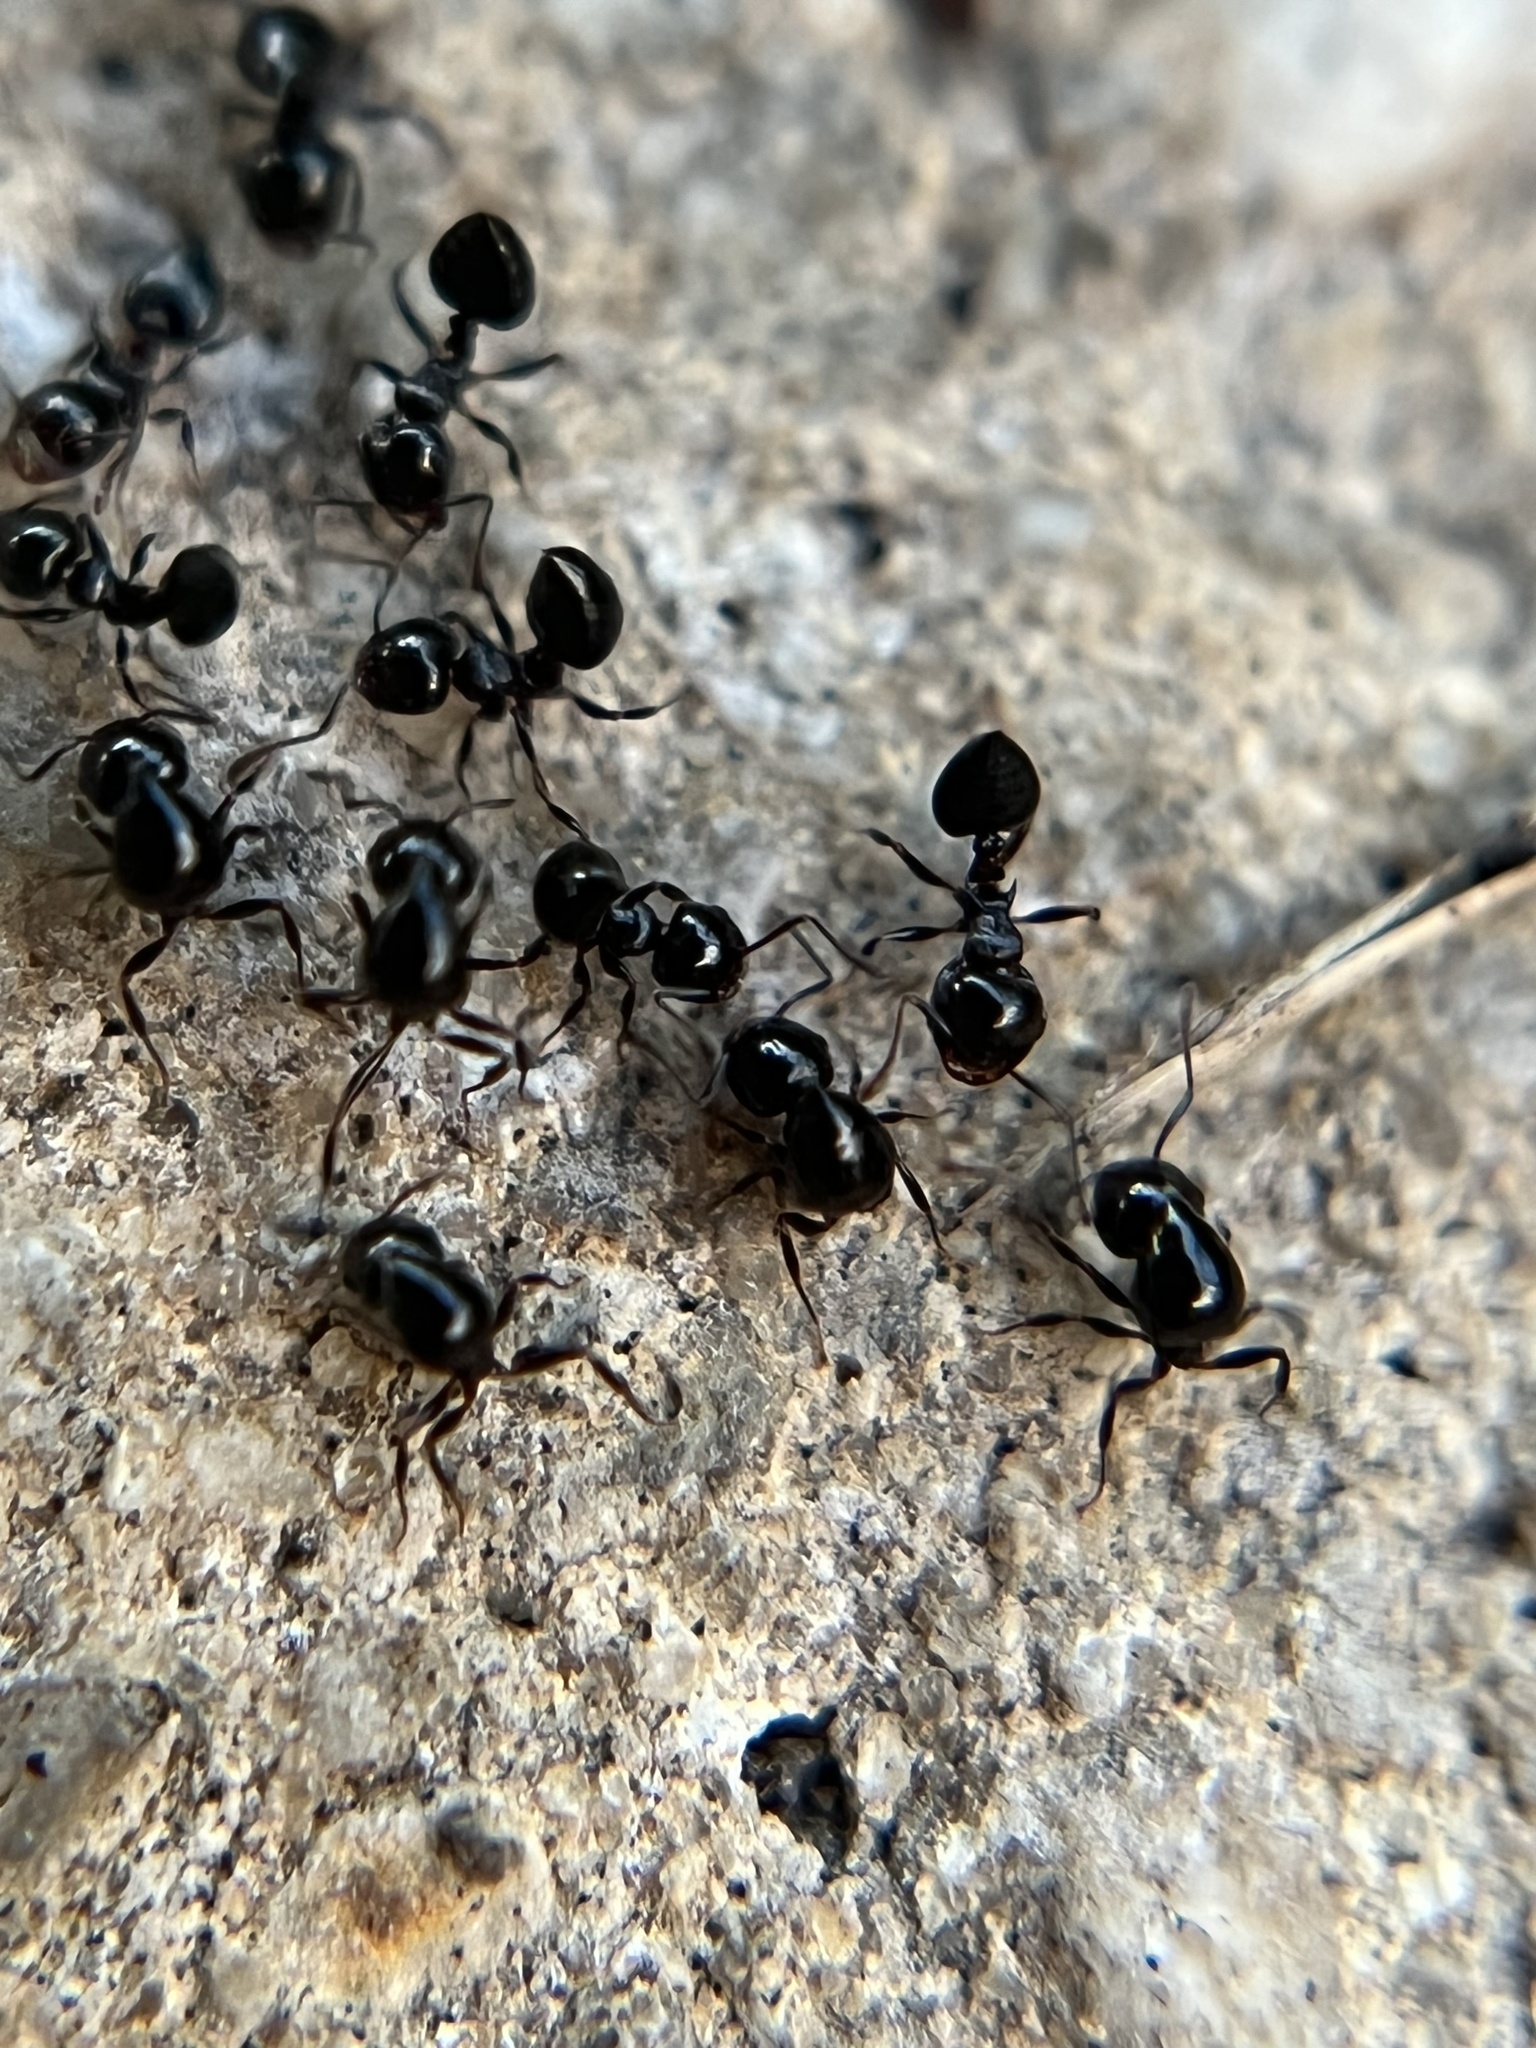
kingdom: Animalia
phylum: Arthropoda
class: Insecta
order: Hymenoptera
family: Formicidae
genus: Crematogaster
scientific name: Crematogaster ashmeadi
